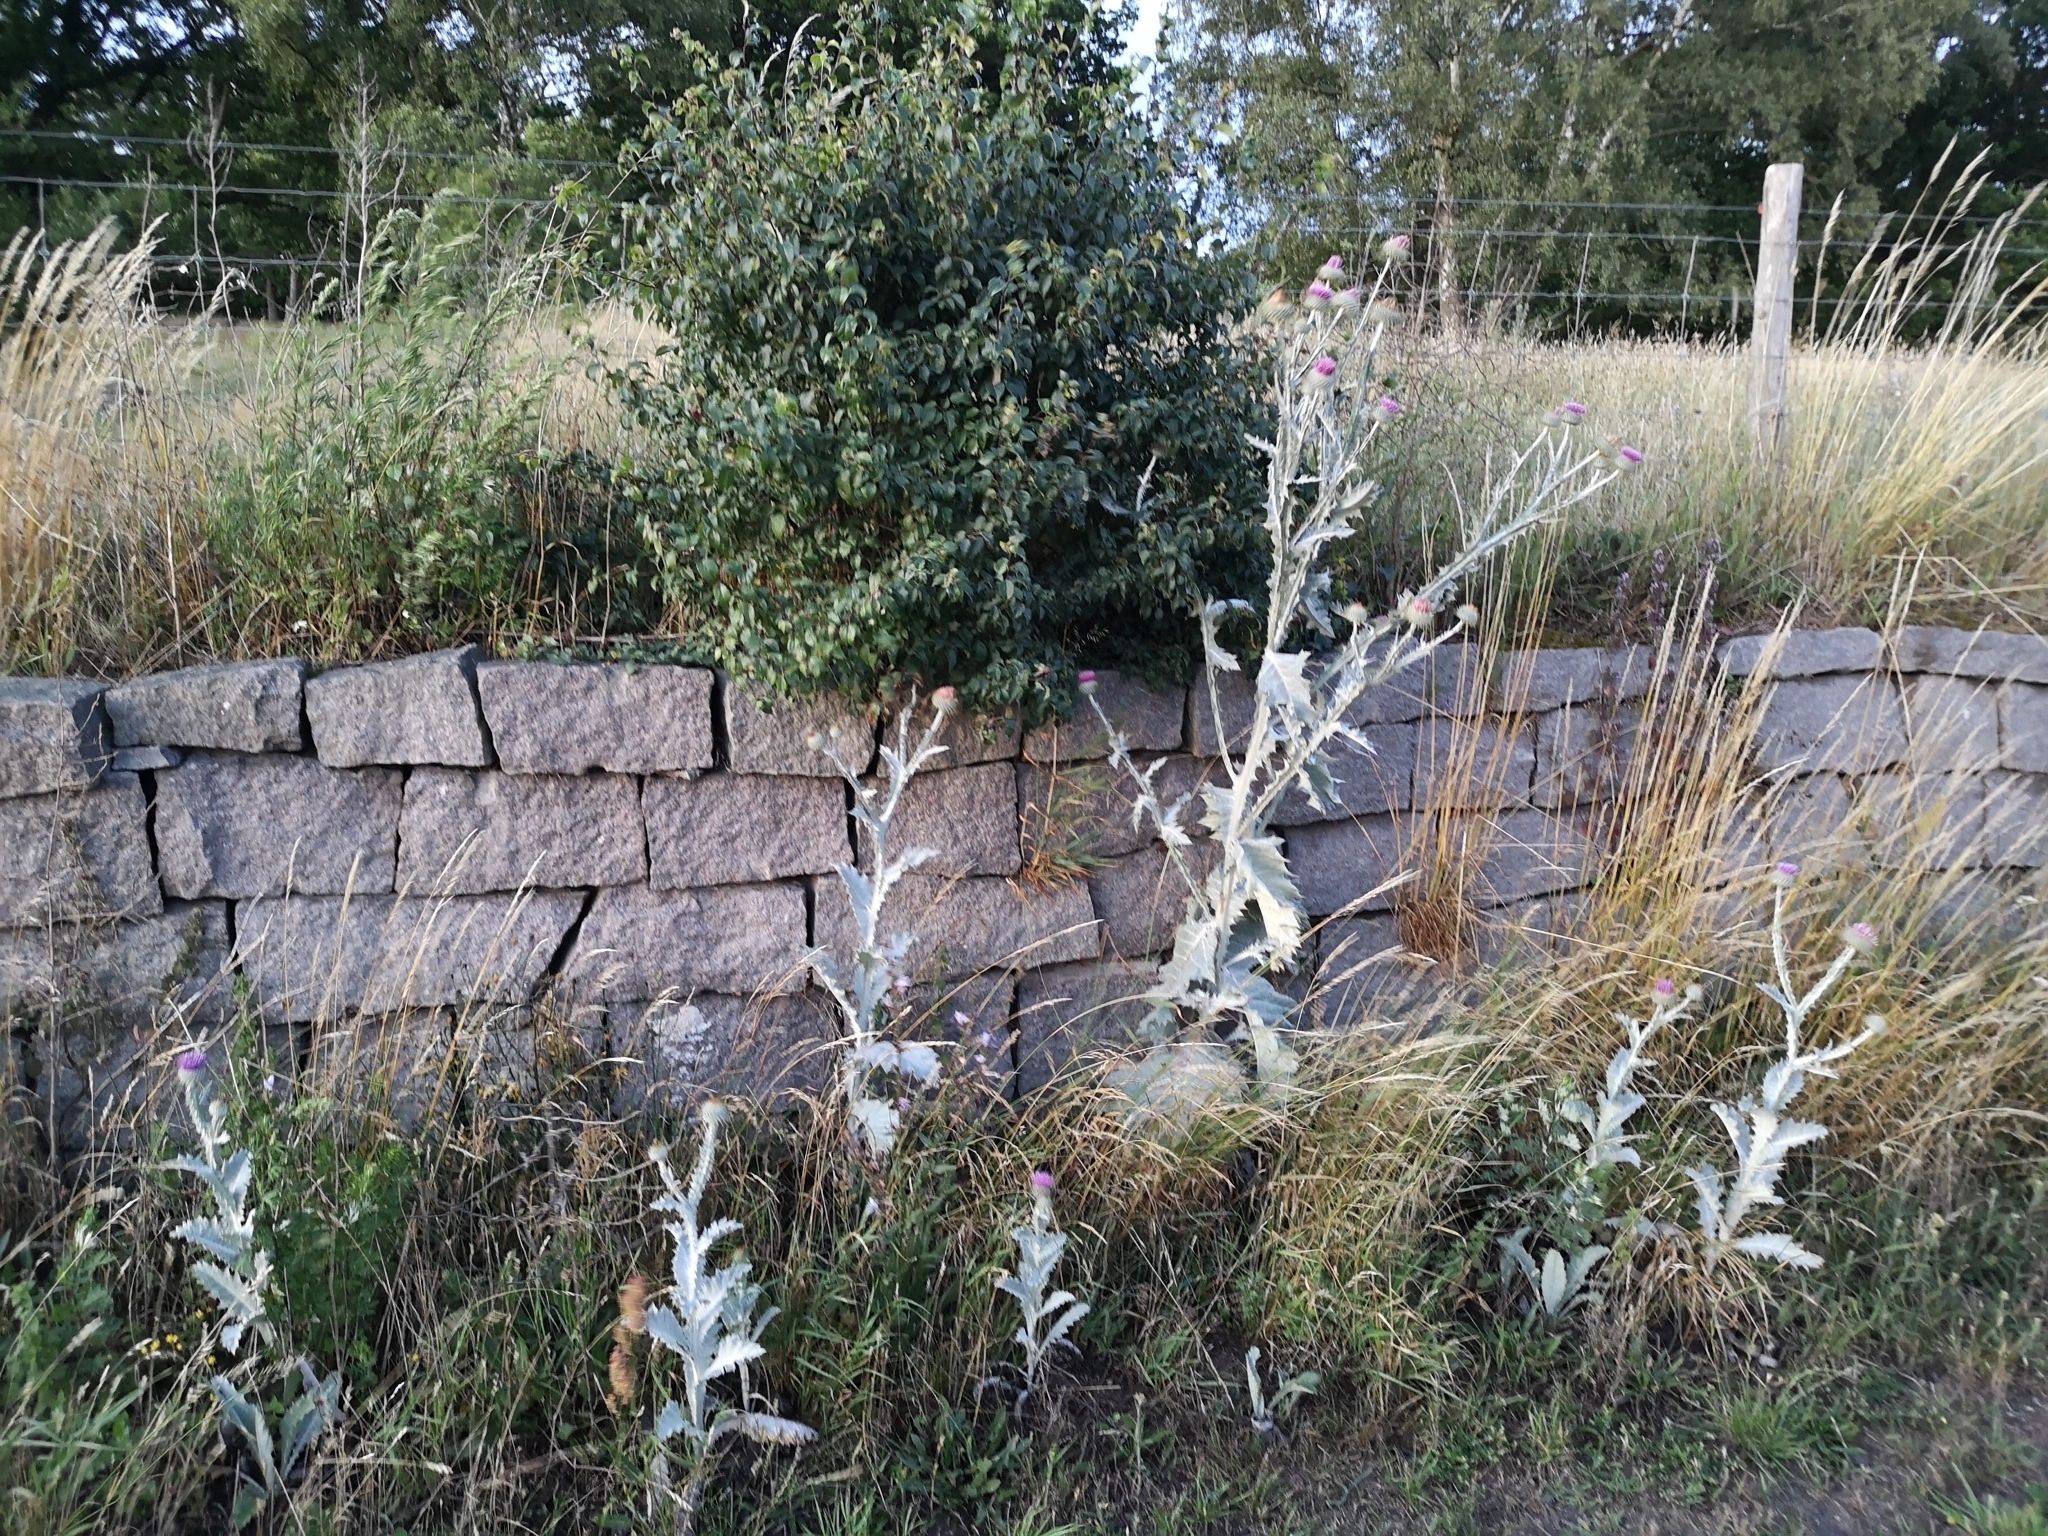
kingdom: Plantae
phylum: Tracheophyta
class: Magnoliopsida
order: Asterales
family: Asteraceae
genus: Onopordum
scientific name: Onopordum acanthium
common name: Scotch thistle
